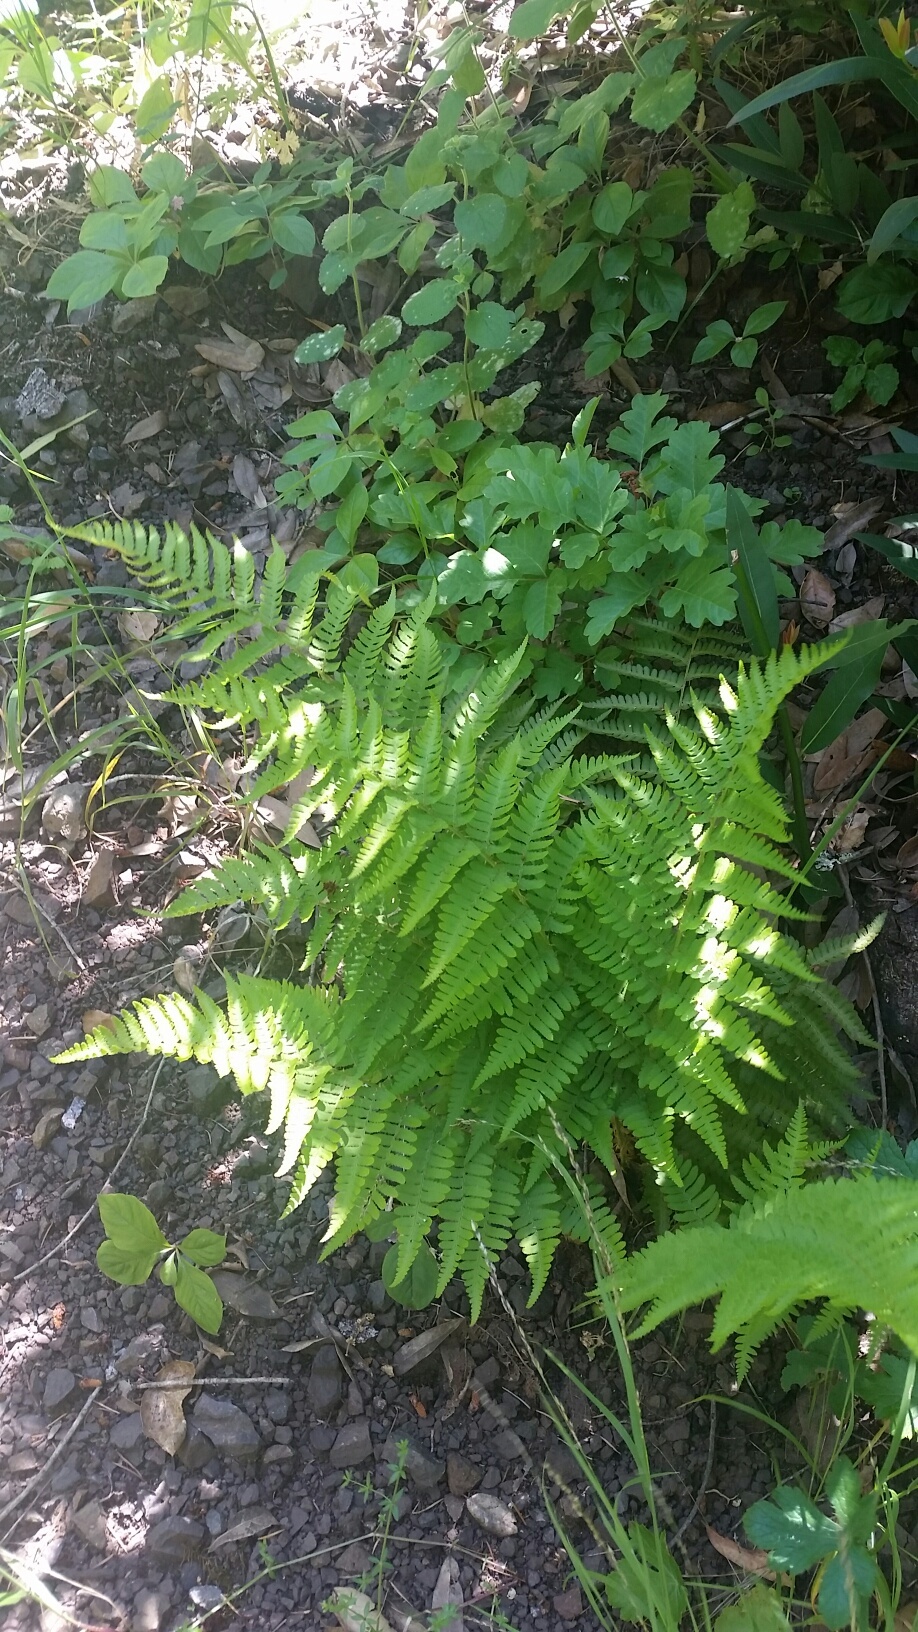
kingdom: Plantae
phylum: Tracheophyta
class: Polypodiopsida
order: Polypodiales
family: Dryopteridaceae
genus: Dryopteris
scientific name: Dryopteris arguta
